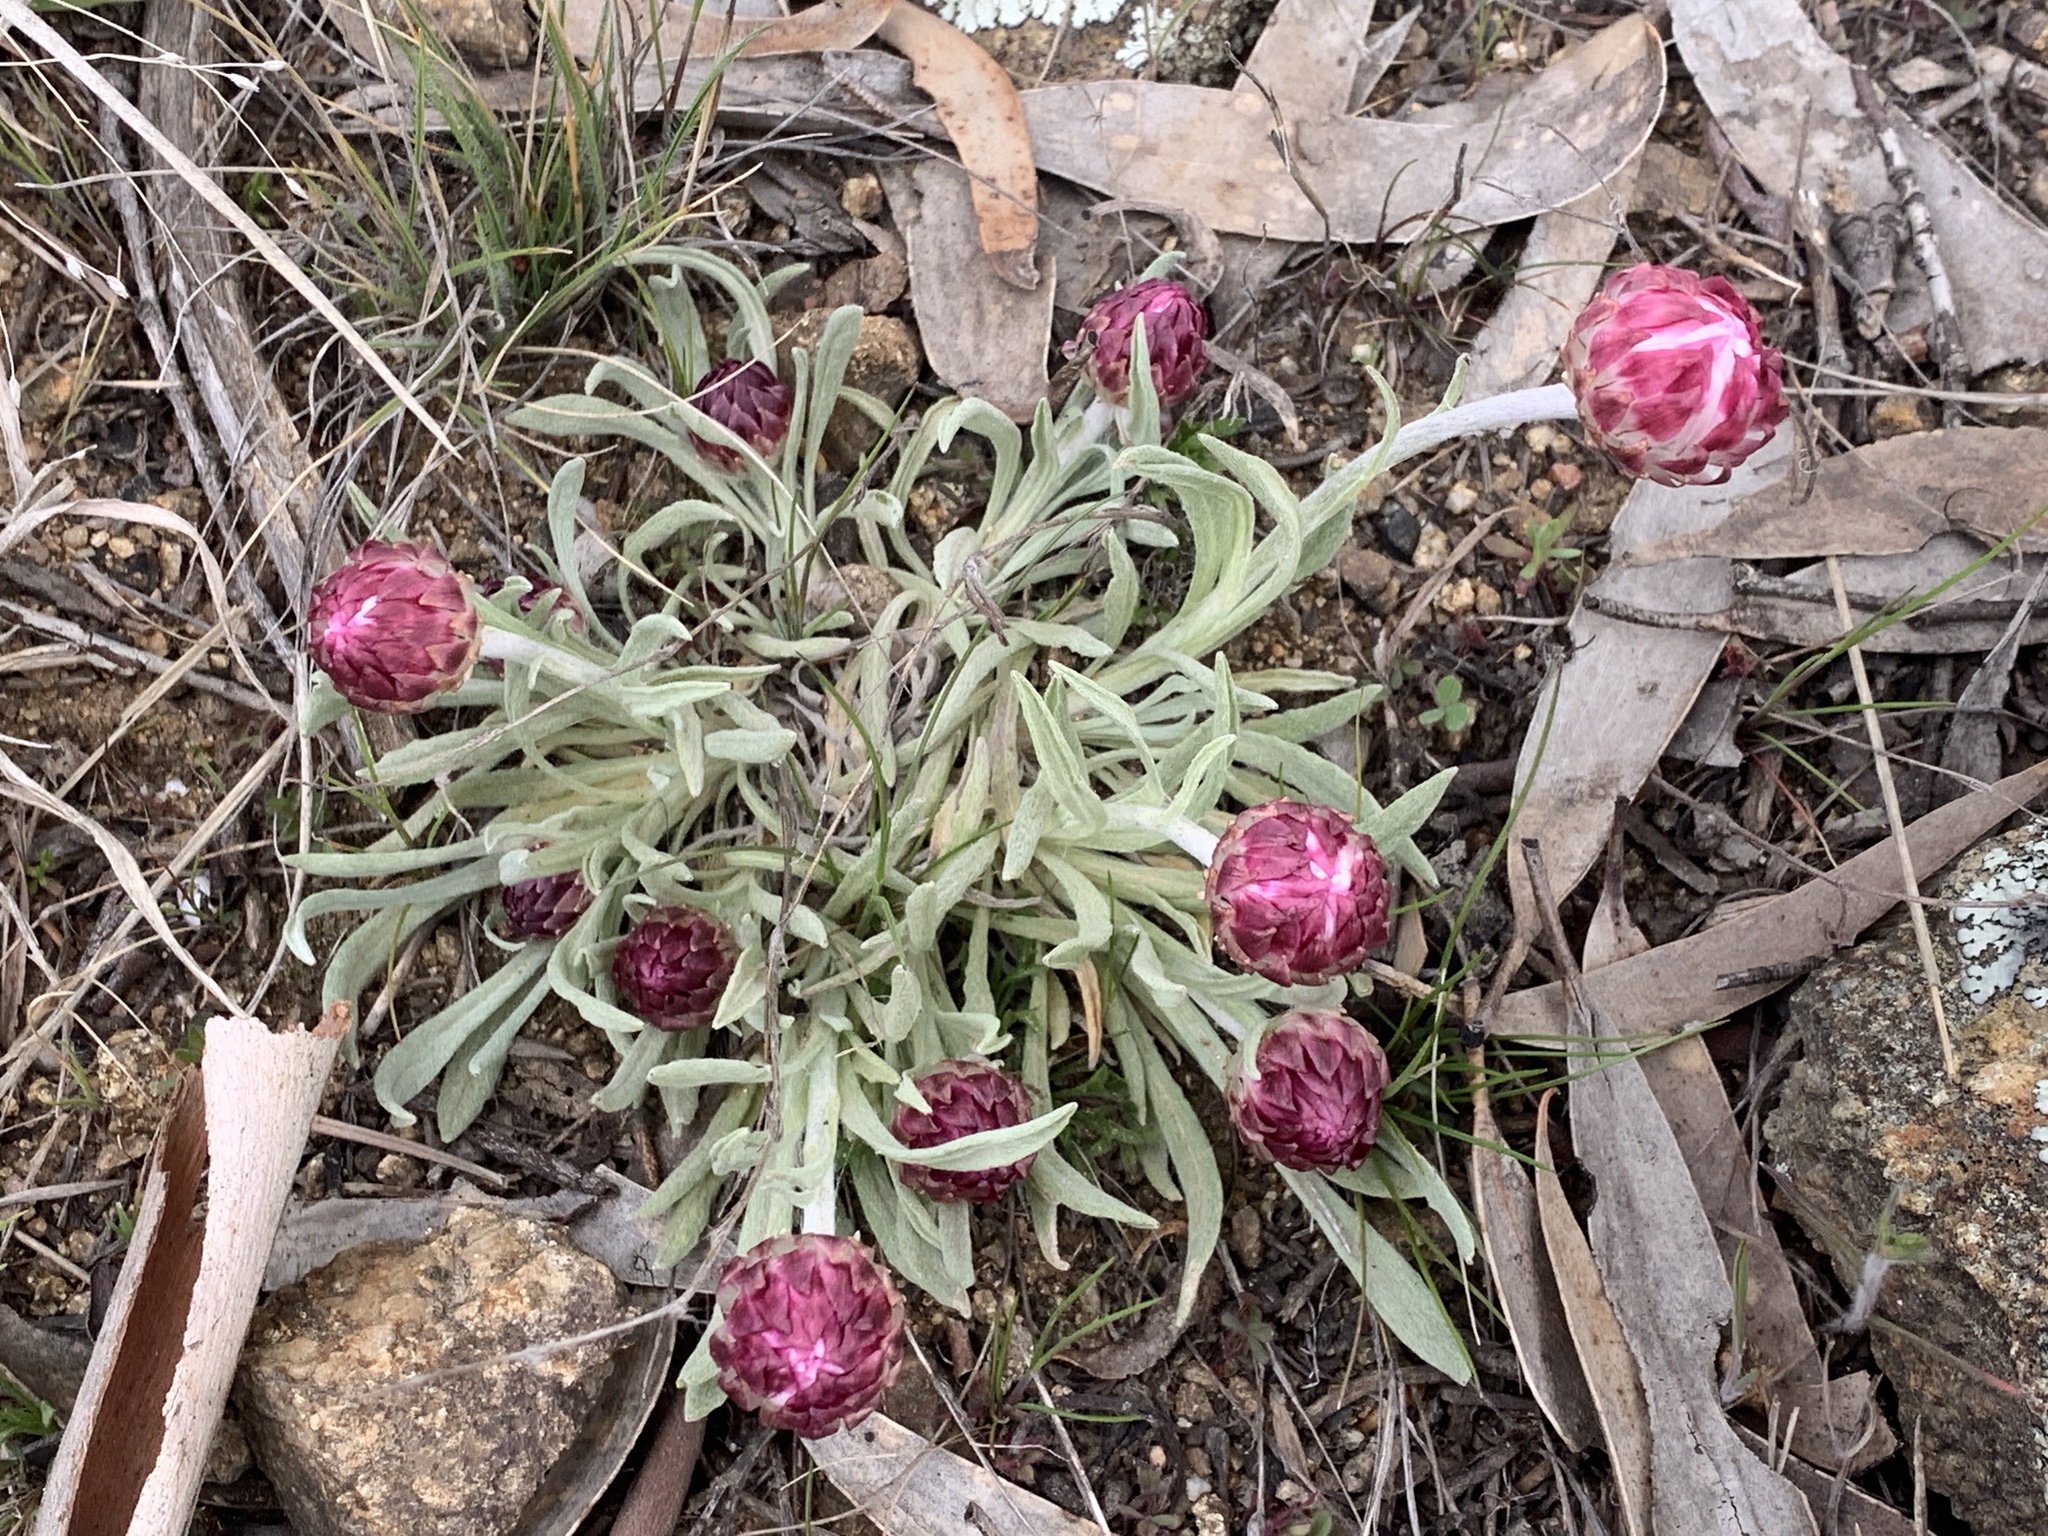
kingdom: Plantae
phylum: Tracheophyta
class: Magnoliopsida
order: Asterales
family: Asteraceae
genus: Leucochrysum
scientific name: Leucochrysum albicans
